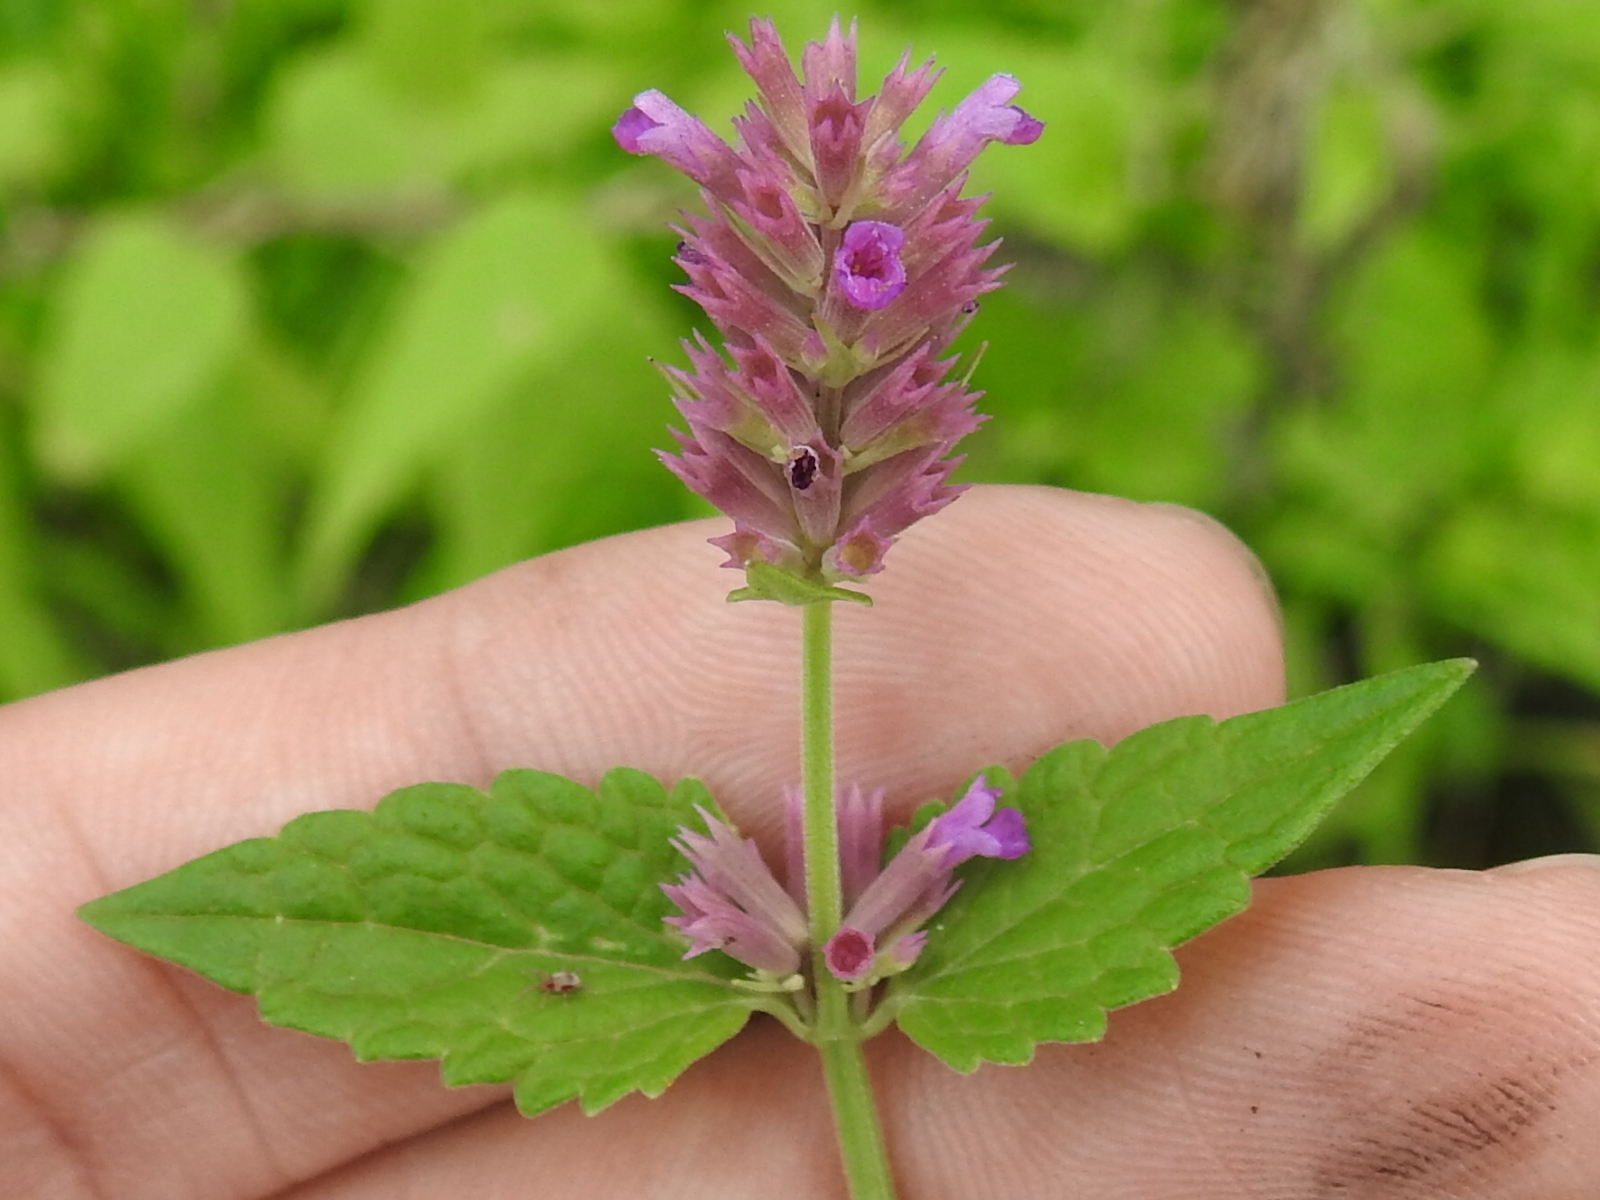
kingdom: Plantae
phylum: Tracheophyta
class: Magnoliopsida
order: Lamiales
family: Lamiaceae
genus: Agastache
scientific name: Agastache breviflora
